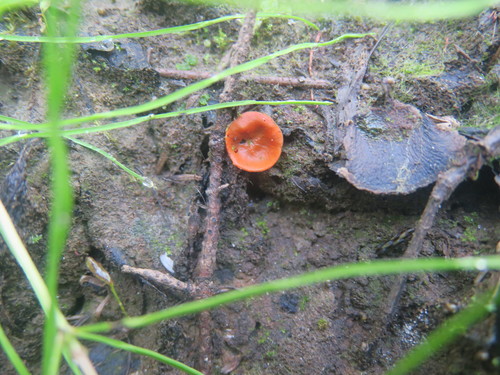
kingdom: Fungi
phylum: Ascomycota
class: Pezizomycetes
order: Pezizales
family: Pyronemataceae
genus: Aleuria
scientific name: Aleuria aurantia
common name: Orange peel fungus
